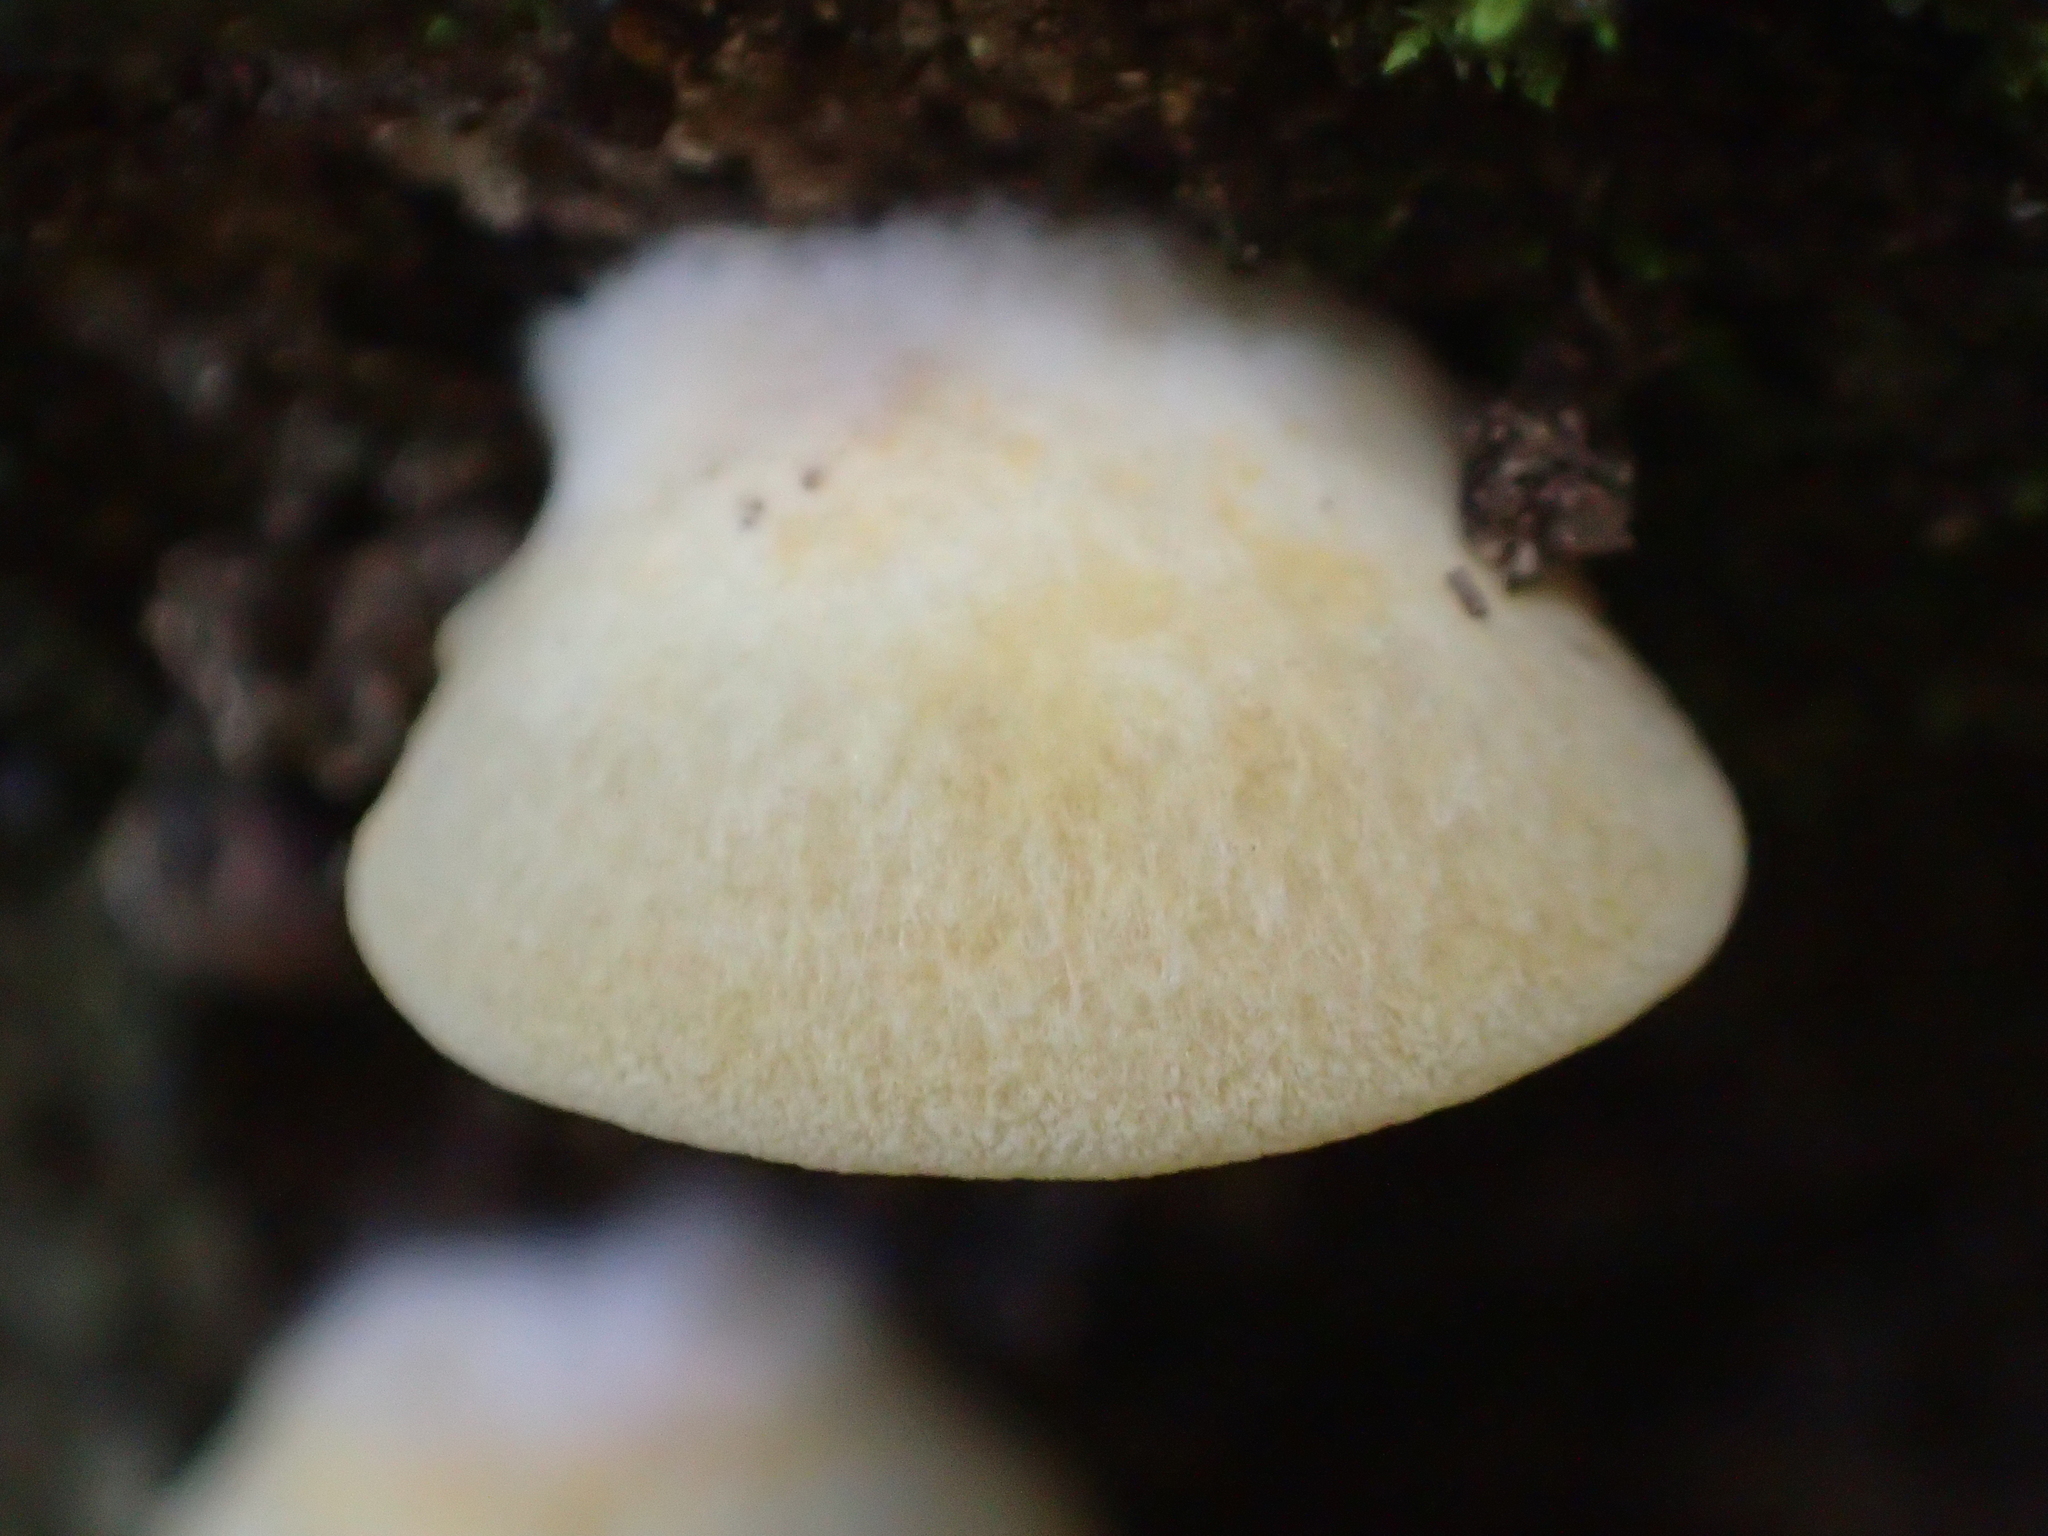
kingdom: Fungi
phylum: Basidiomycota
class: Agaricomycetes
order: Agaricales
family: Tricholomataceae
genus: Conchomyces
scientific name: Conchomyces bursiformis
